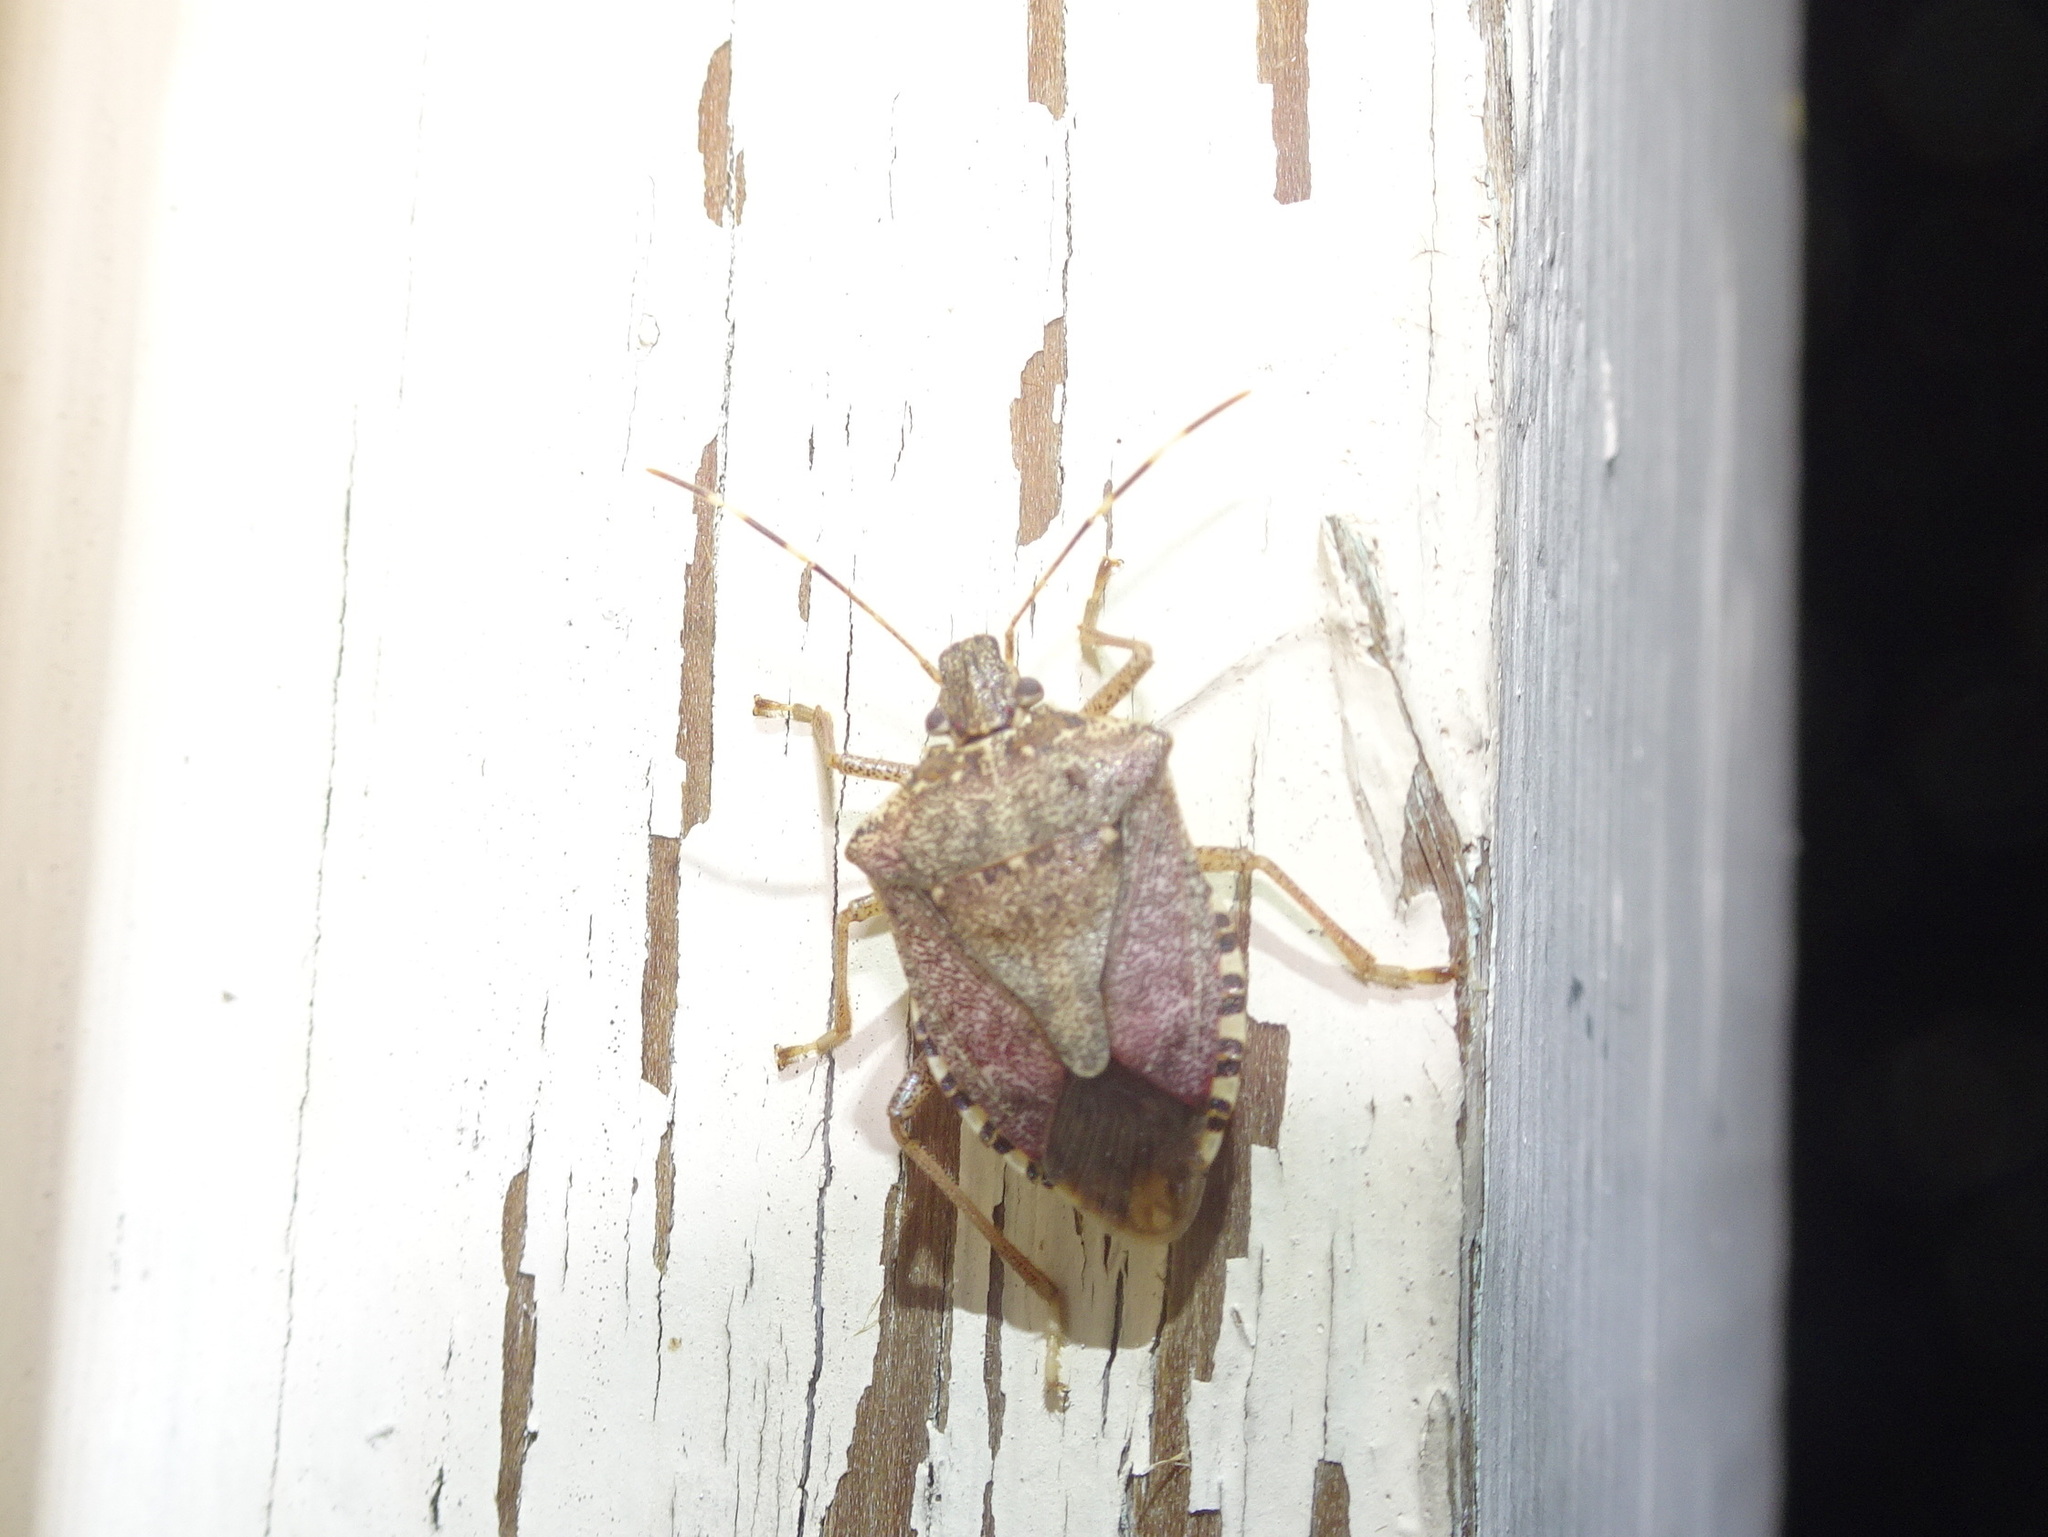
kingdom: Animalia
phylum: Arthropoda
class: Insecta
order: Hemiptera
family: Pentatomidae
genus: Halyomorpha
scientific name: Halyomorpha halys
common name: Brown marmorated stink bug
